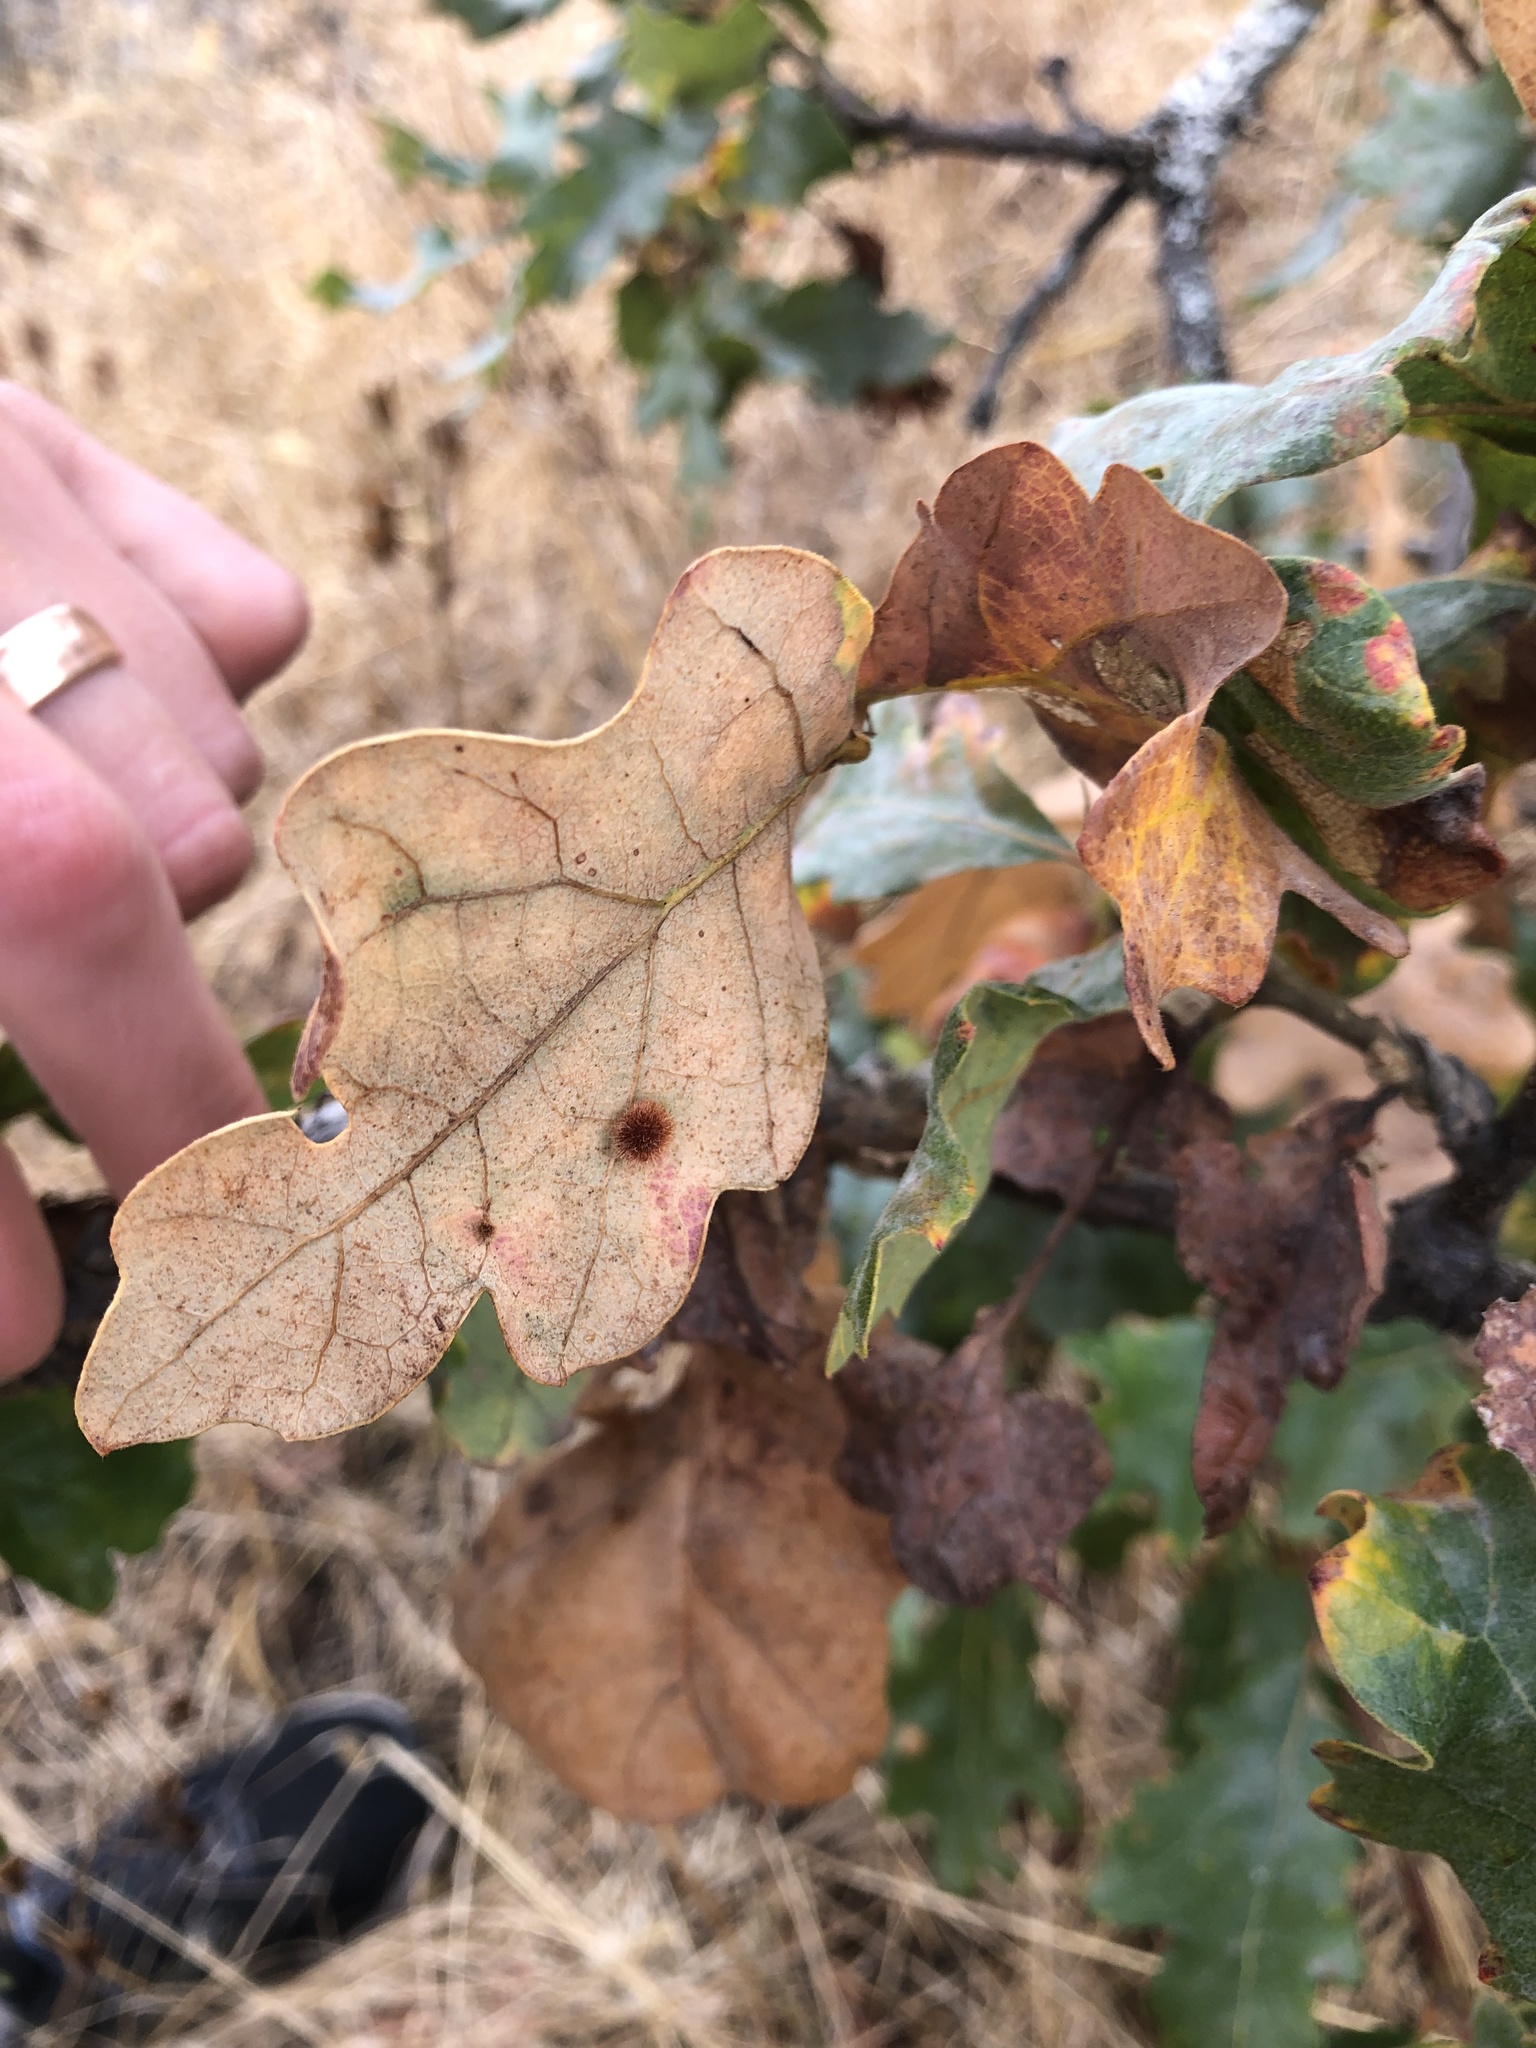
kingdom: Animalia
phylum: Arthropoda
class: Insecta
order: Hymenoptera
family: Cynipidae
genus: Andricus
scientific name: Andricus
